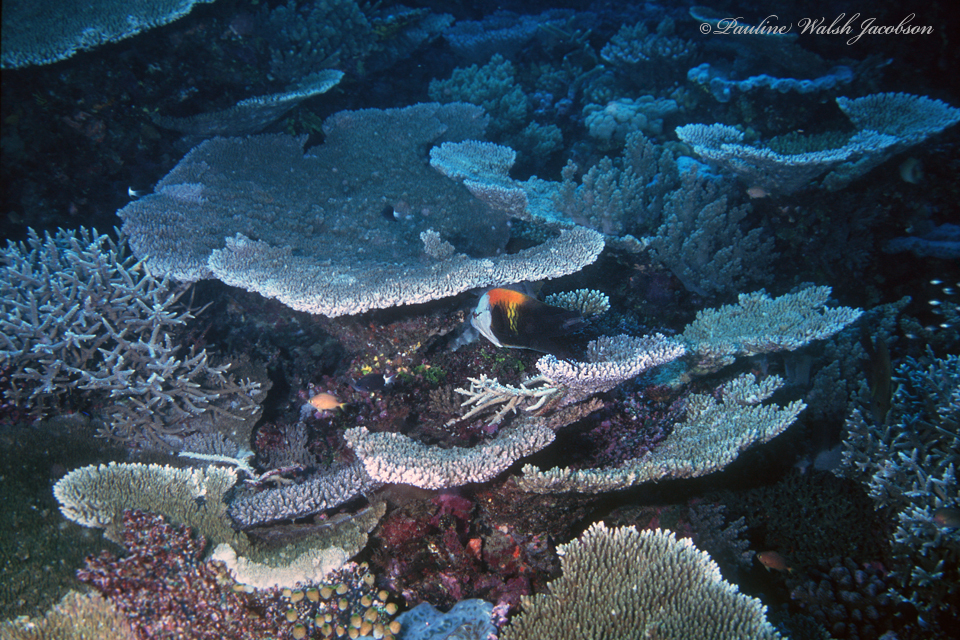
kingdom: Animalia
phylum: Cnidaria
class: Anthozoa
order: Scleractinia
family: Acroporidae
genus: Acropora
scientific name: Acropora hyacinthus
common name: Hyacinth table coral
